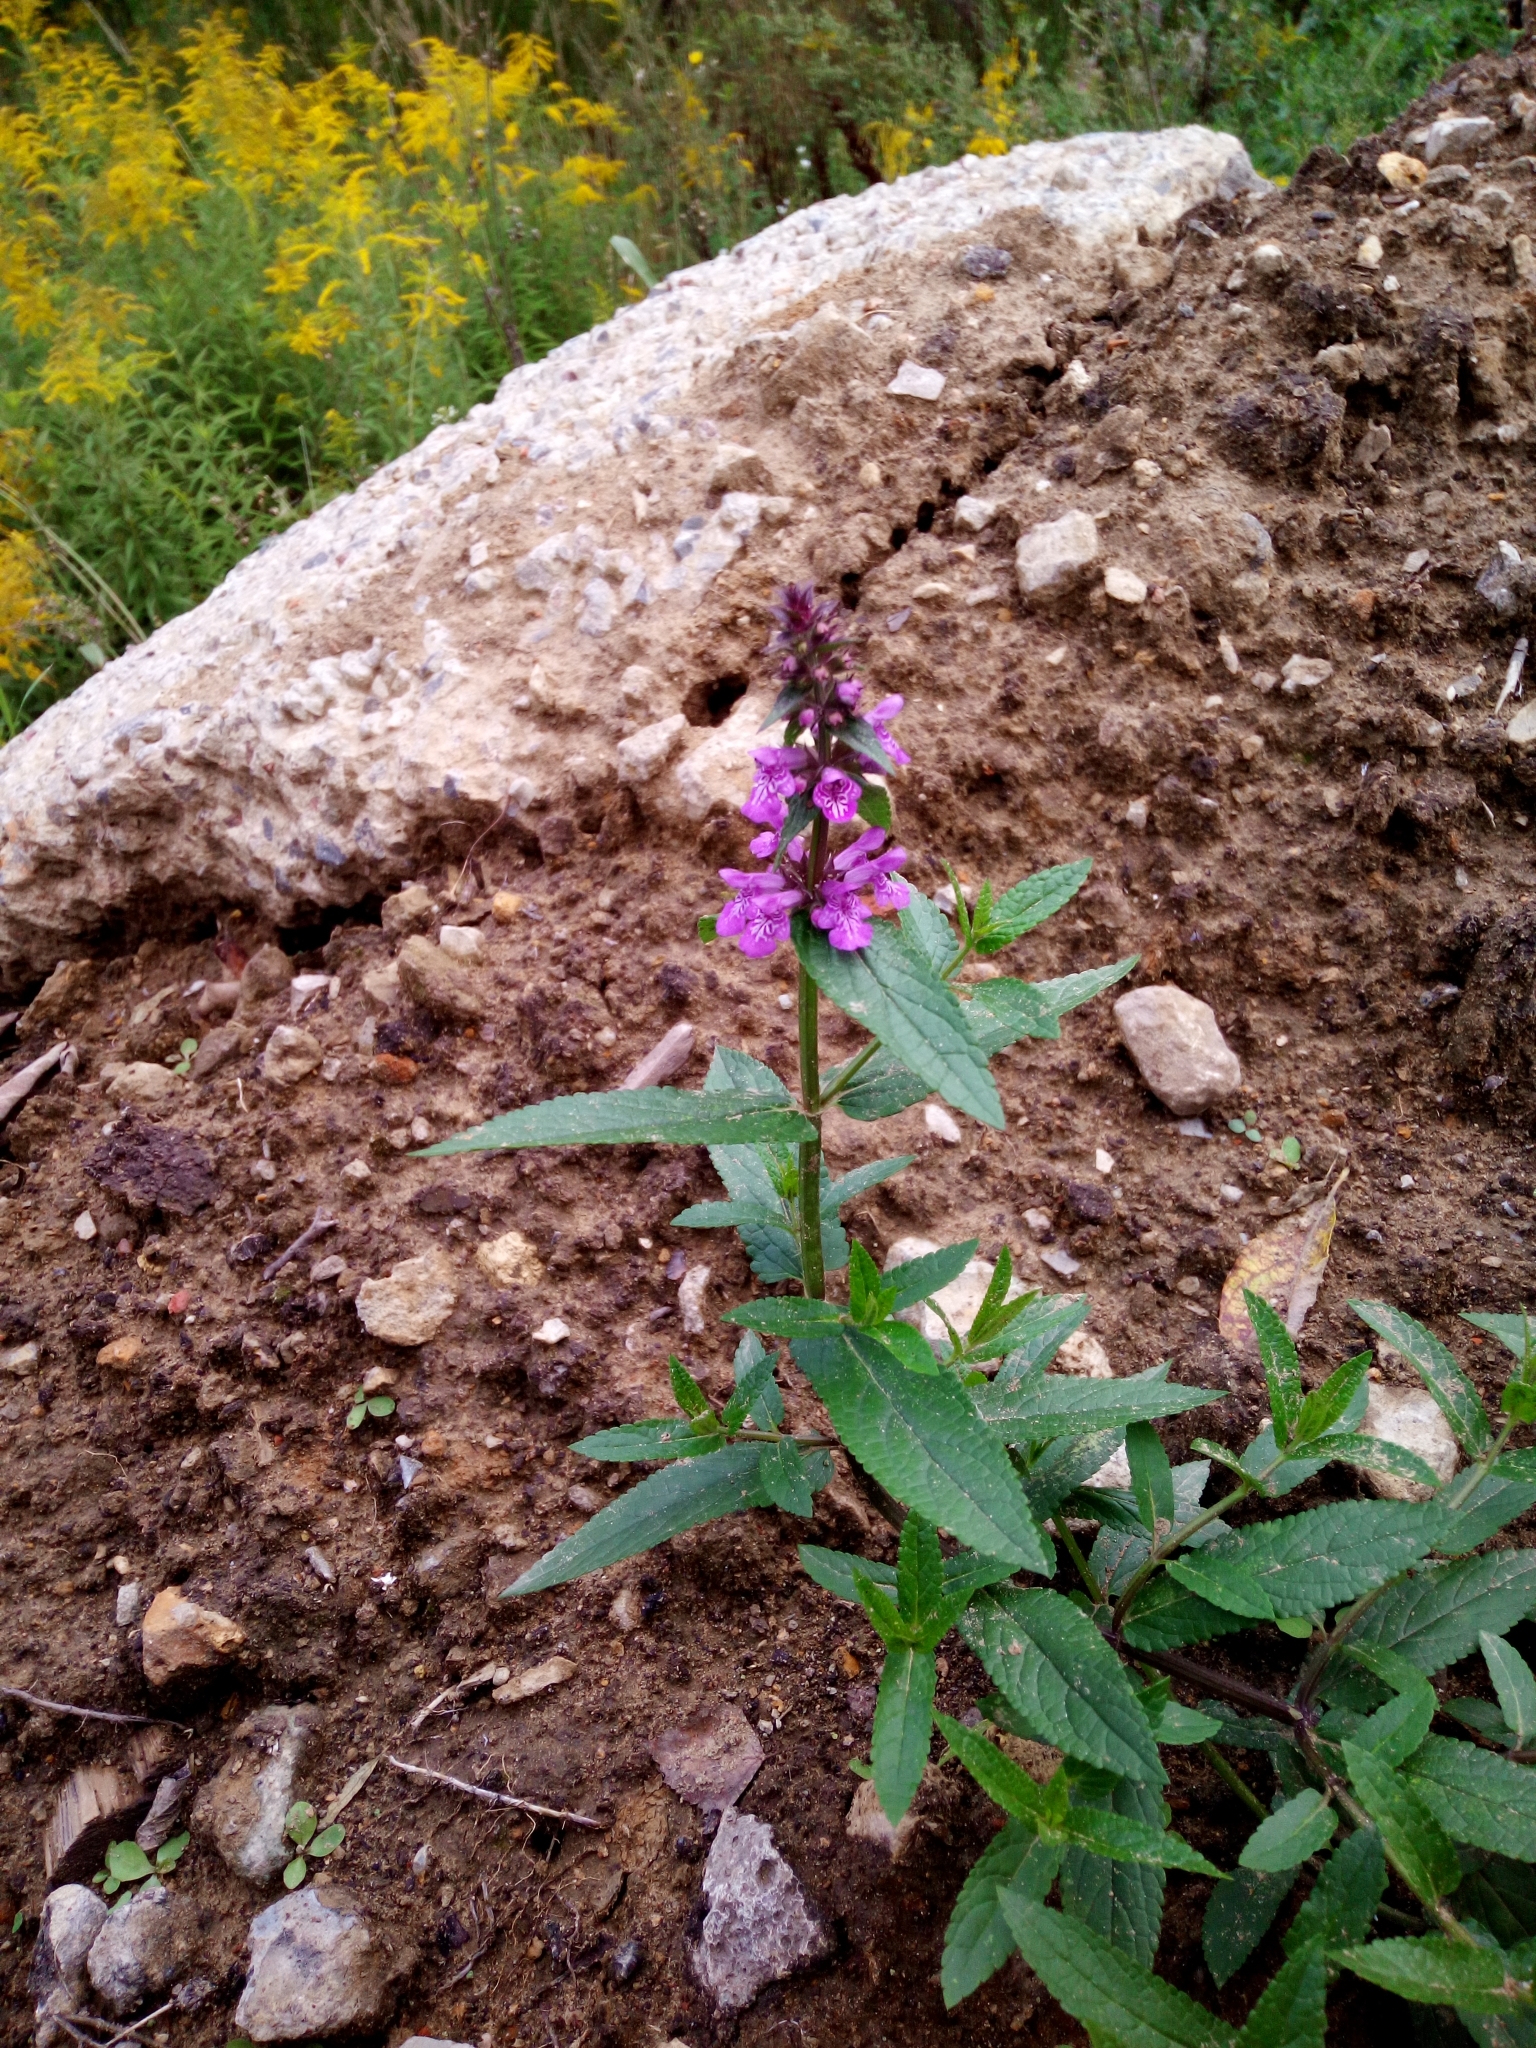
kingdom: Plantae
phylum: Tracheophyta
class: Magnoliopsida
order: Lamiales
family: Lamiaceae
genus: Stachys
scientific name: Stachys palustris
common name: Marsh woundwort
